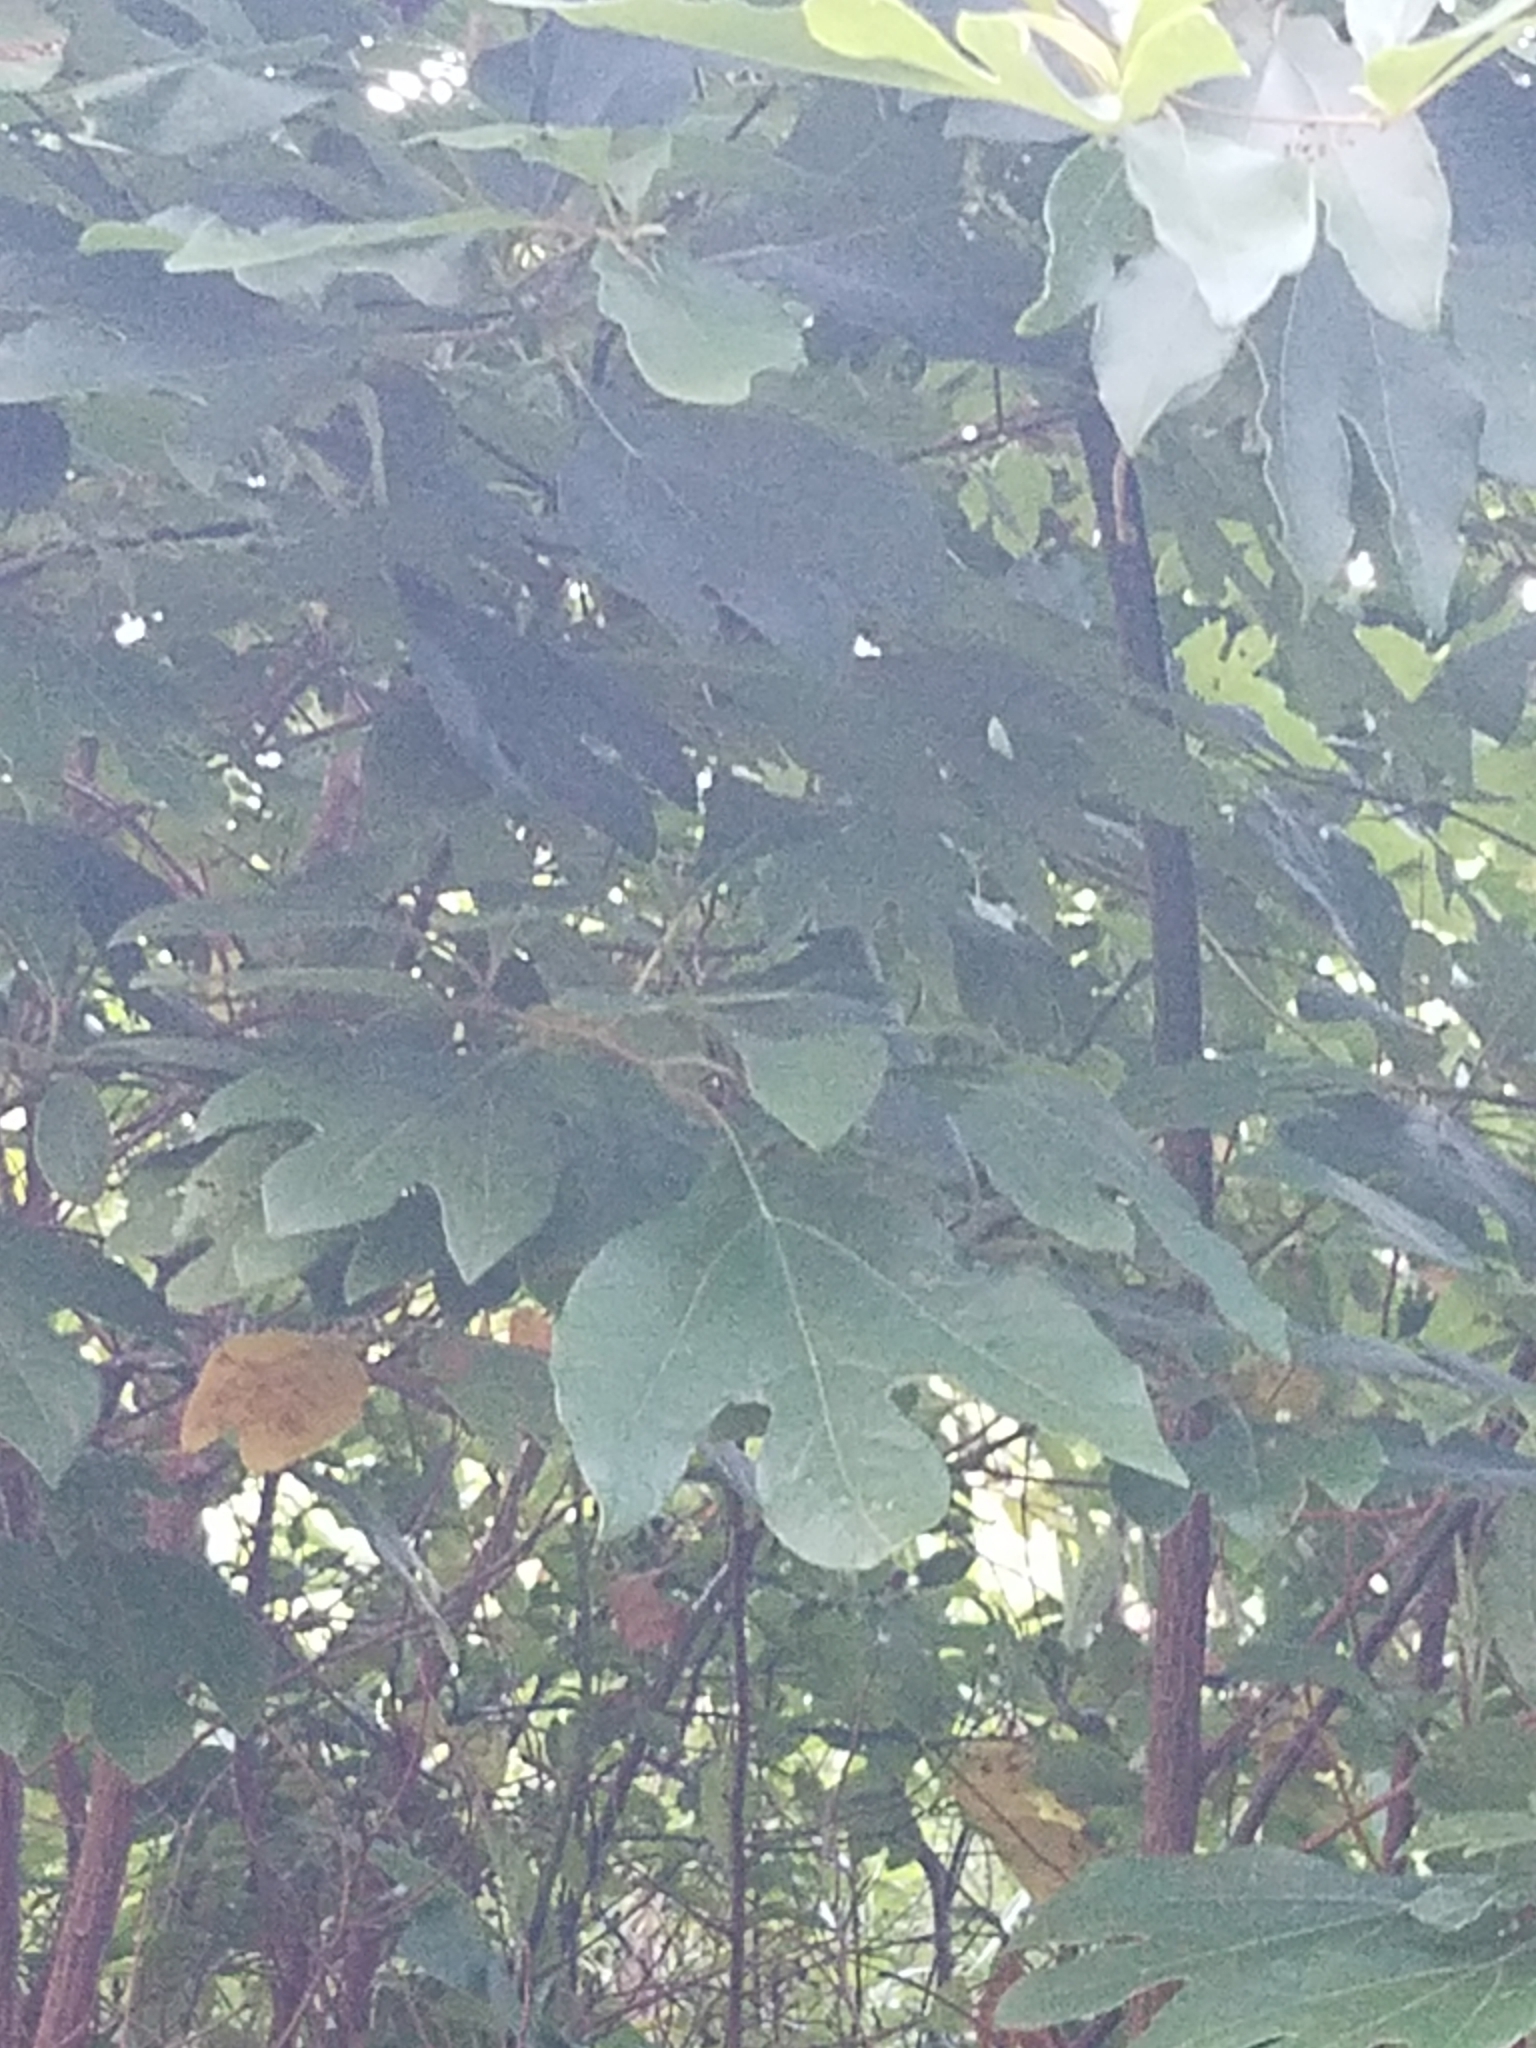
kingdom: Plantae
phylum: Tracheophyta
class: Magnoliopsida
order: Laurales
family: Lauraceae
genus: Sassafras
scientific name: Sassafras albidum
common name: Sassafras
